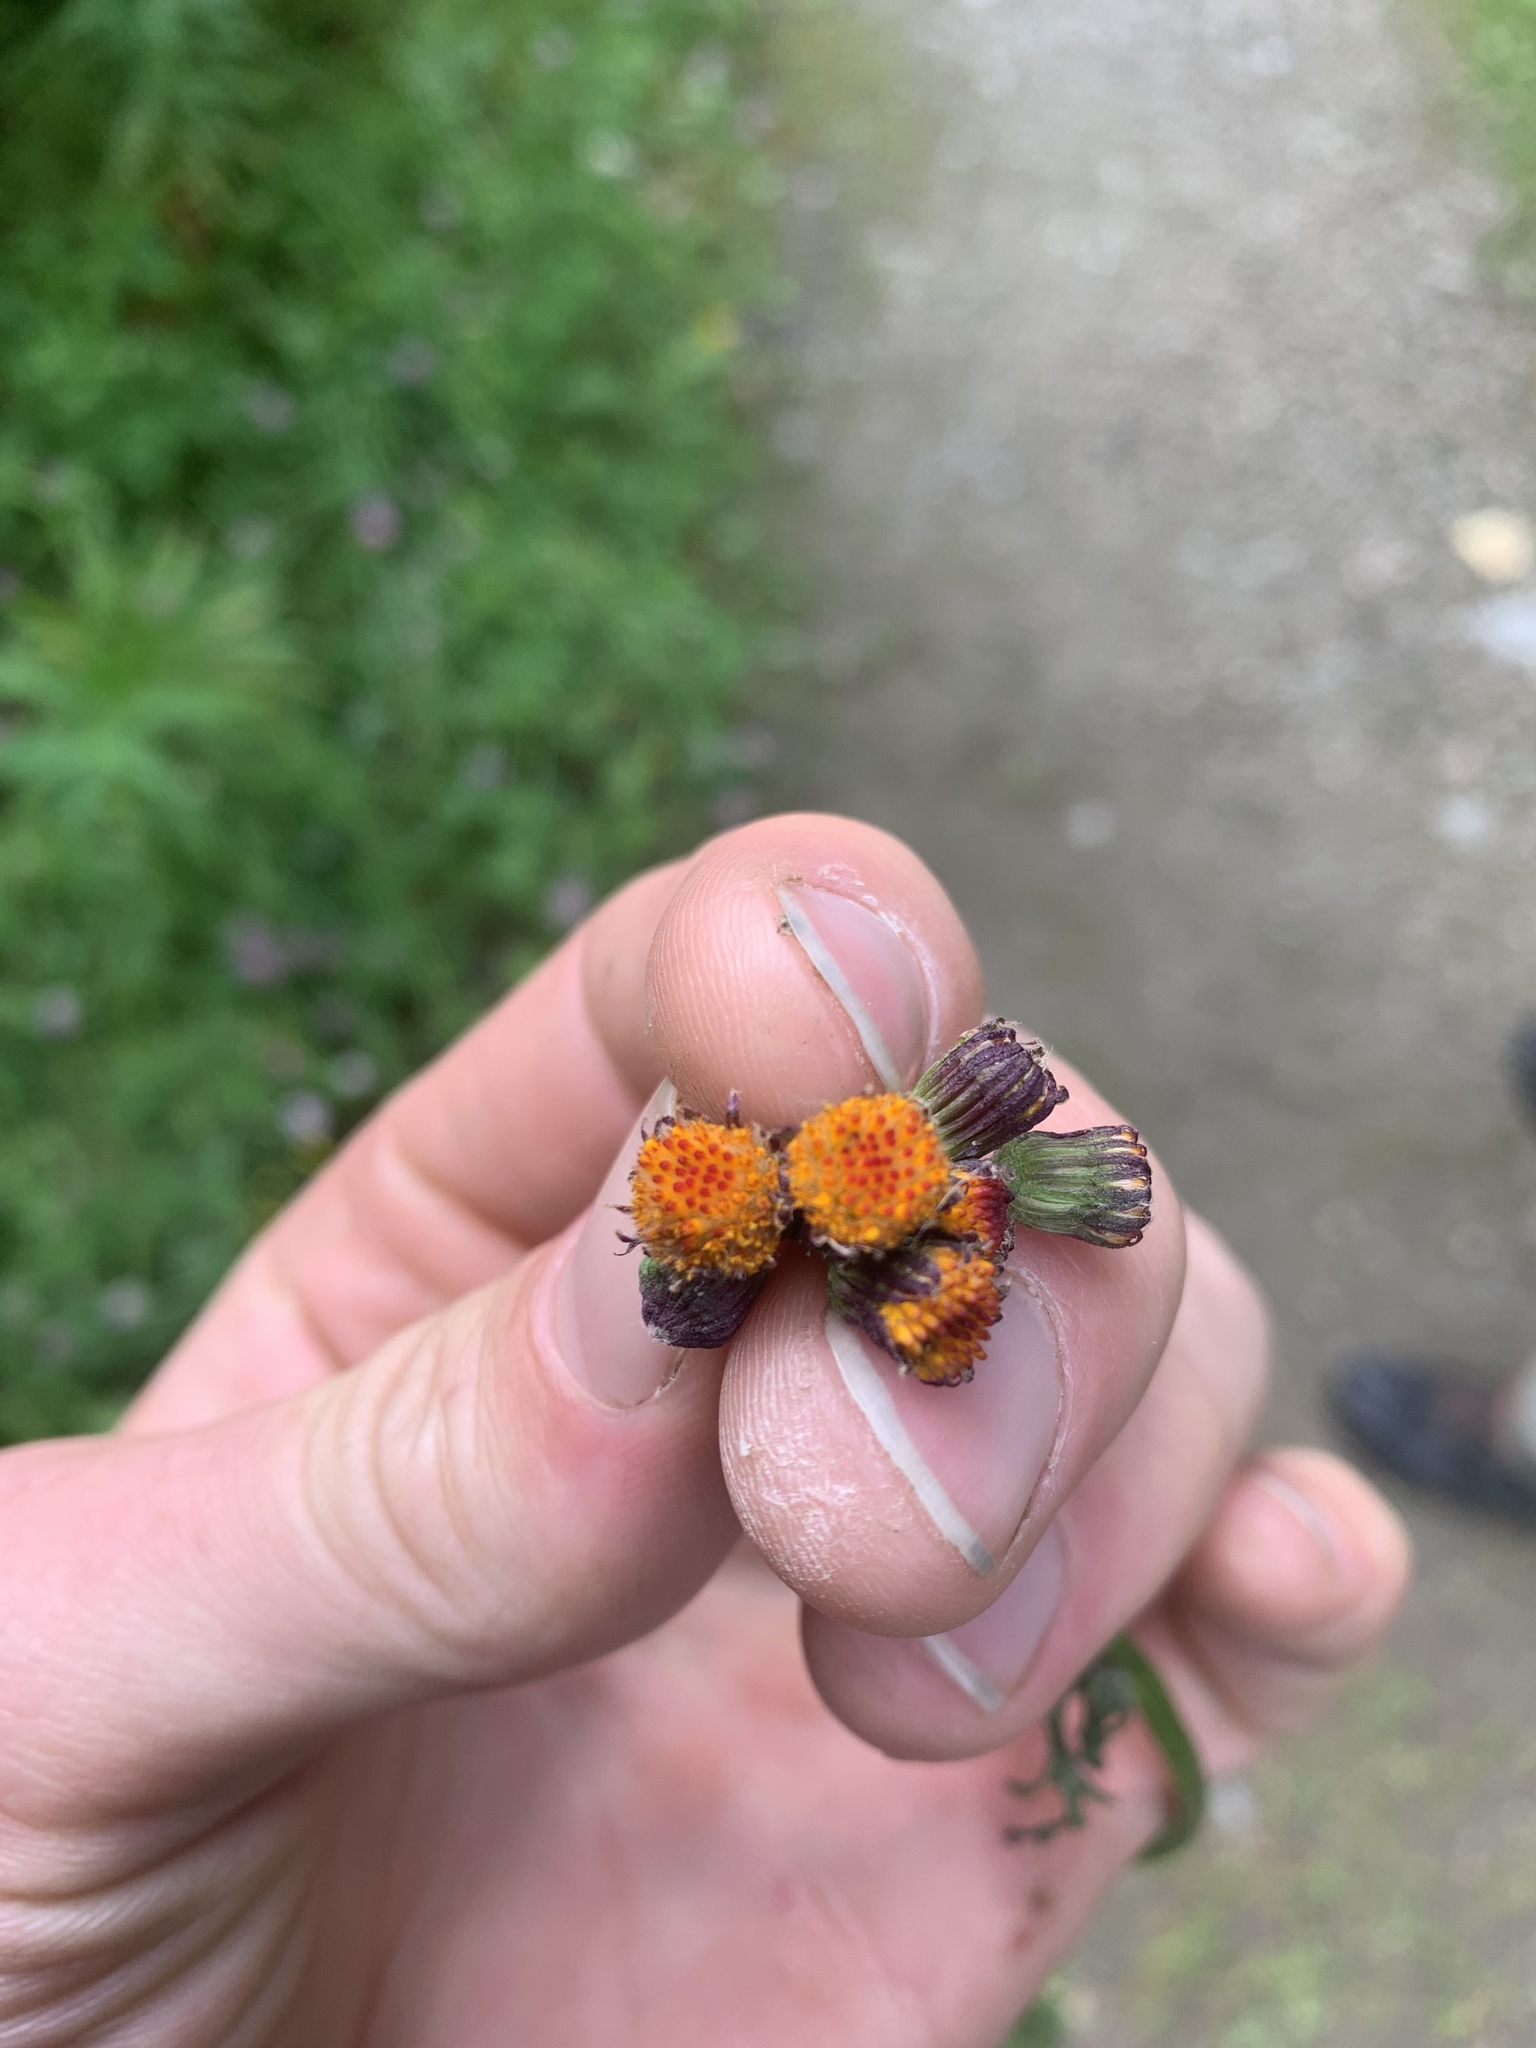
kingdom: Plantae
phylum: Tracheophyta
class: Magnoliopsida
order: Asterales
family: Asteraceae
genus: Packera
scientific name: Packera pauciflora
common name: Alpine groundsel
